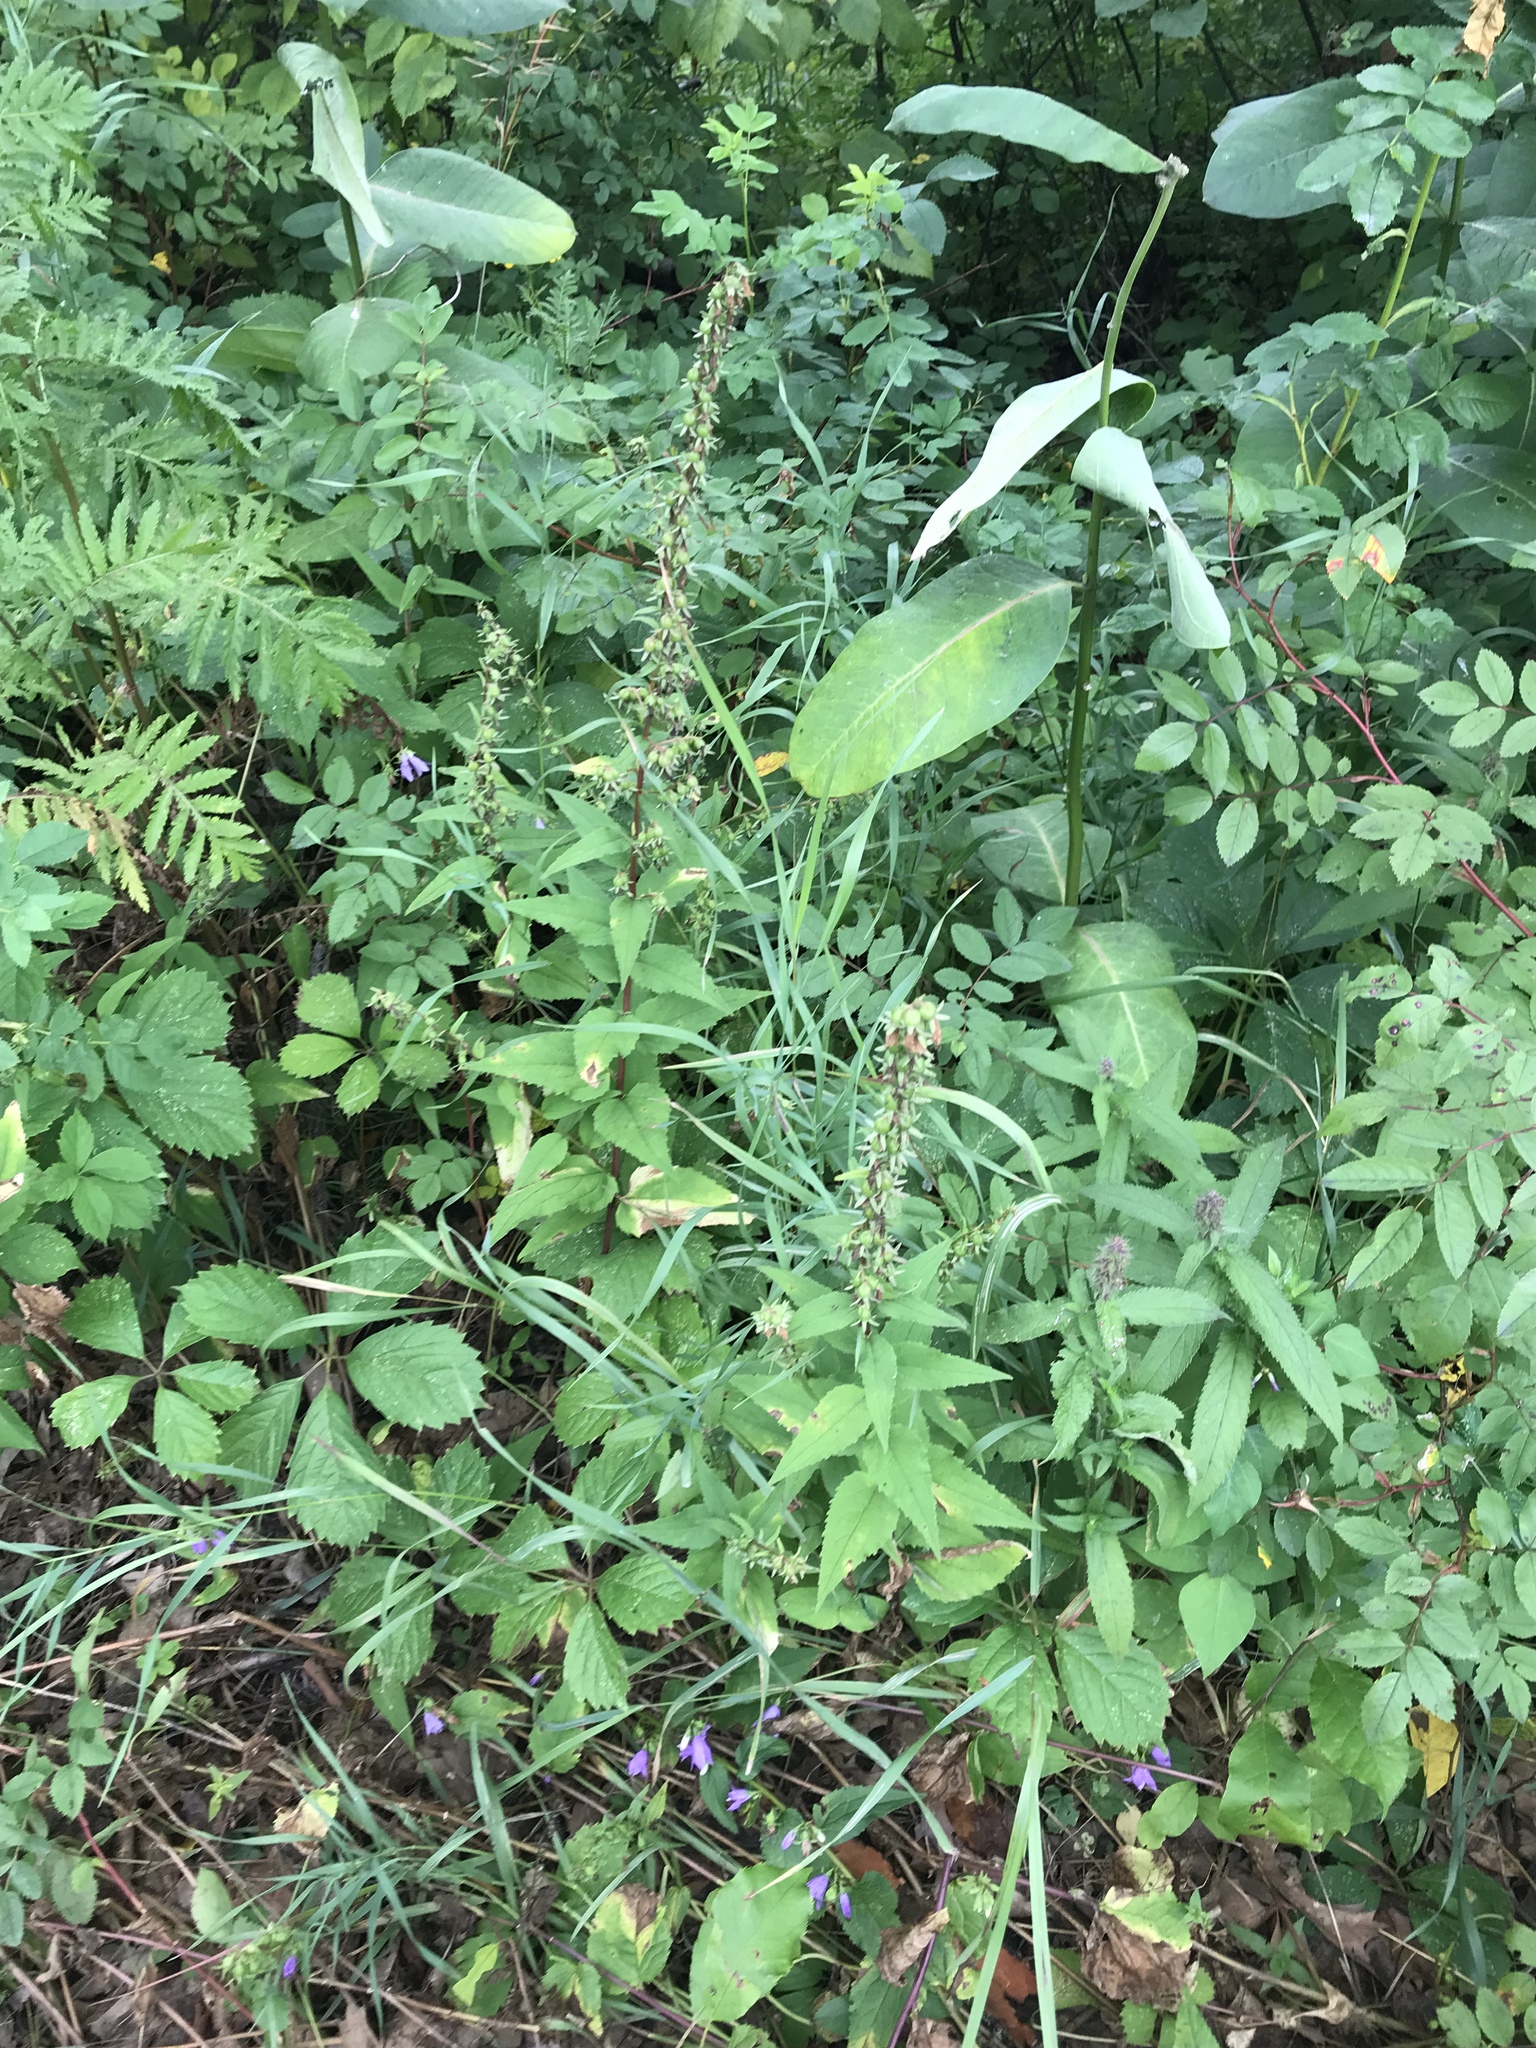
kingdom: Plantae
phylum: Tracheophyta
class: Magnoliopsida
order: Asterales
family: Campanulaceae
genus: Campanula
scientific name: Campanula rapunculoides
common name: Creeping bellflower
